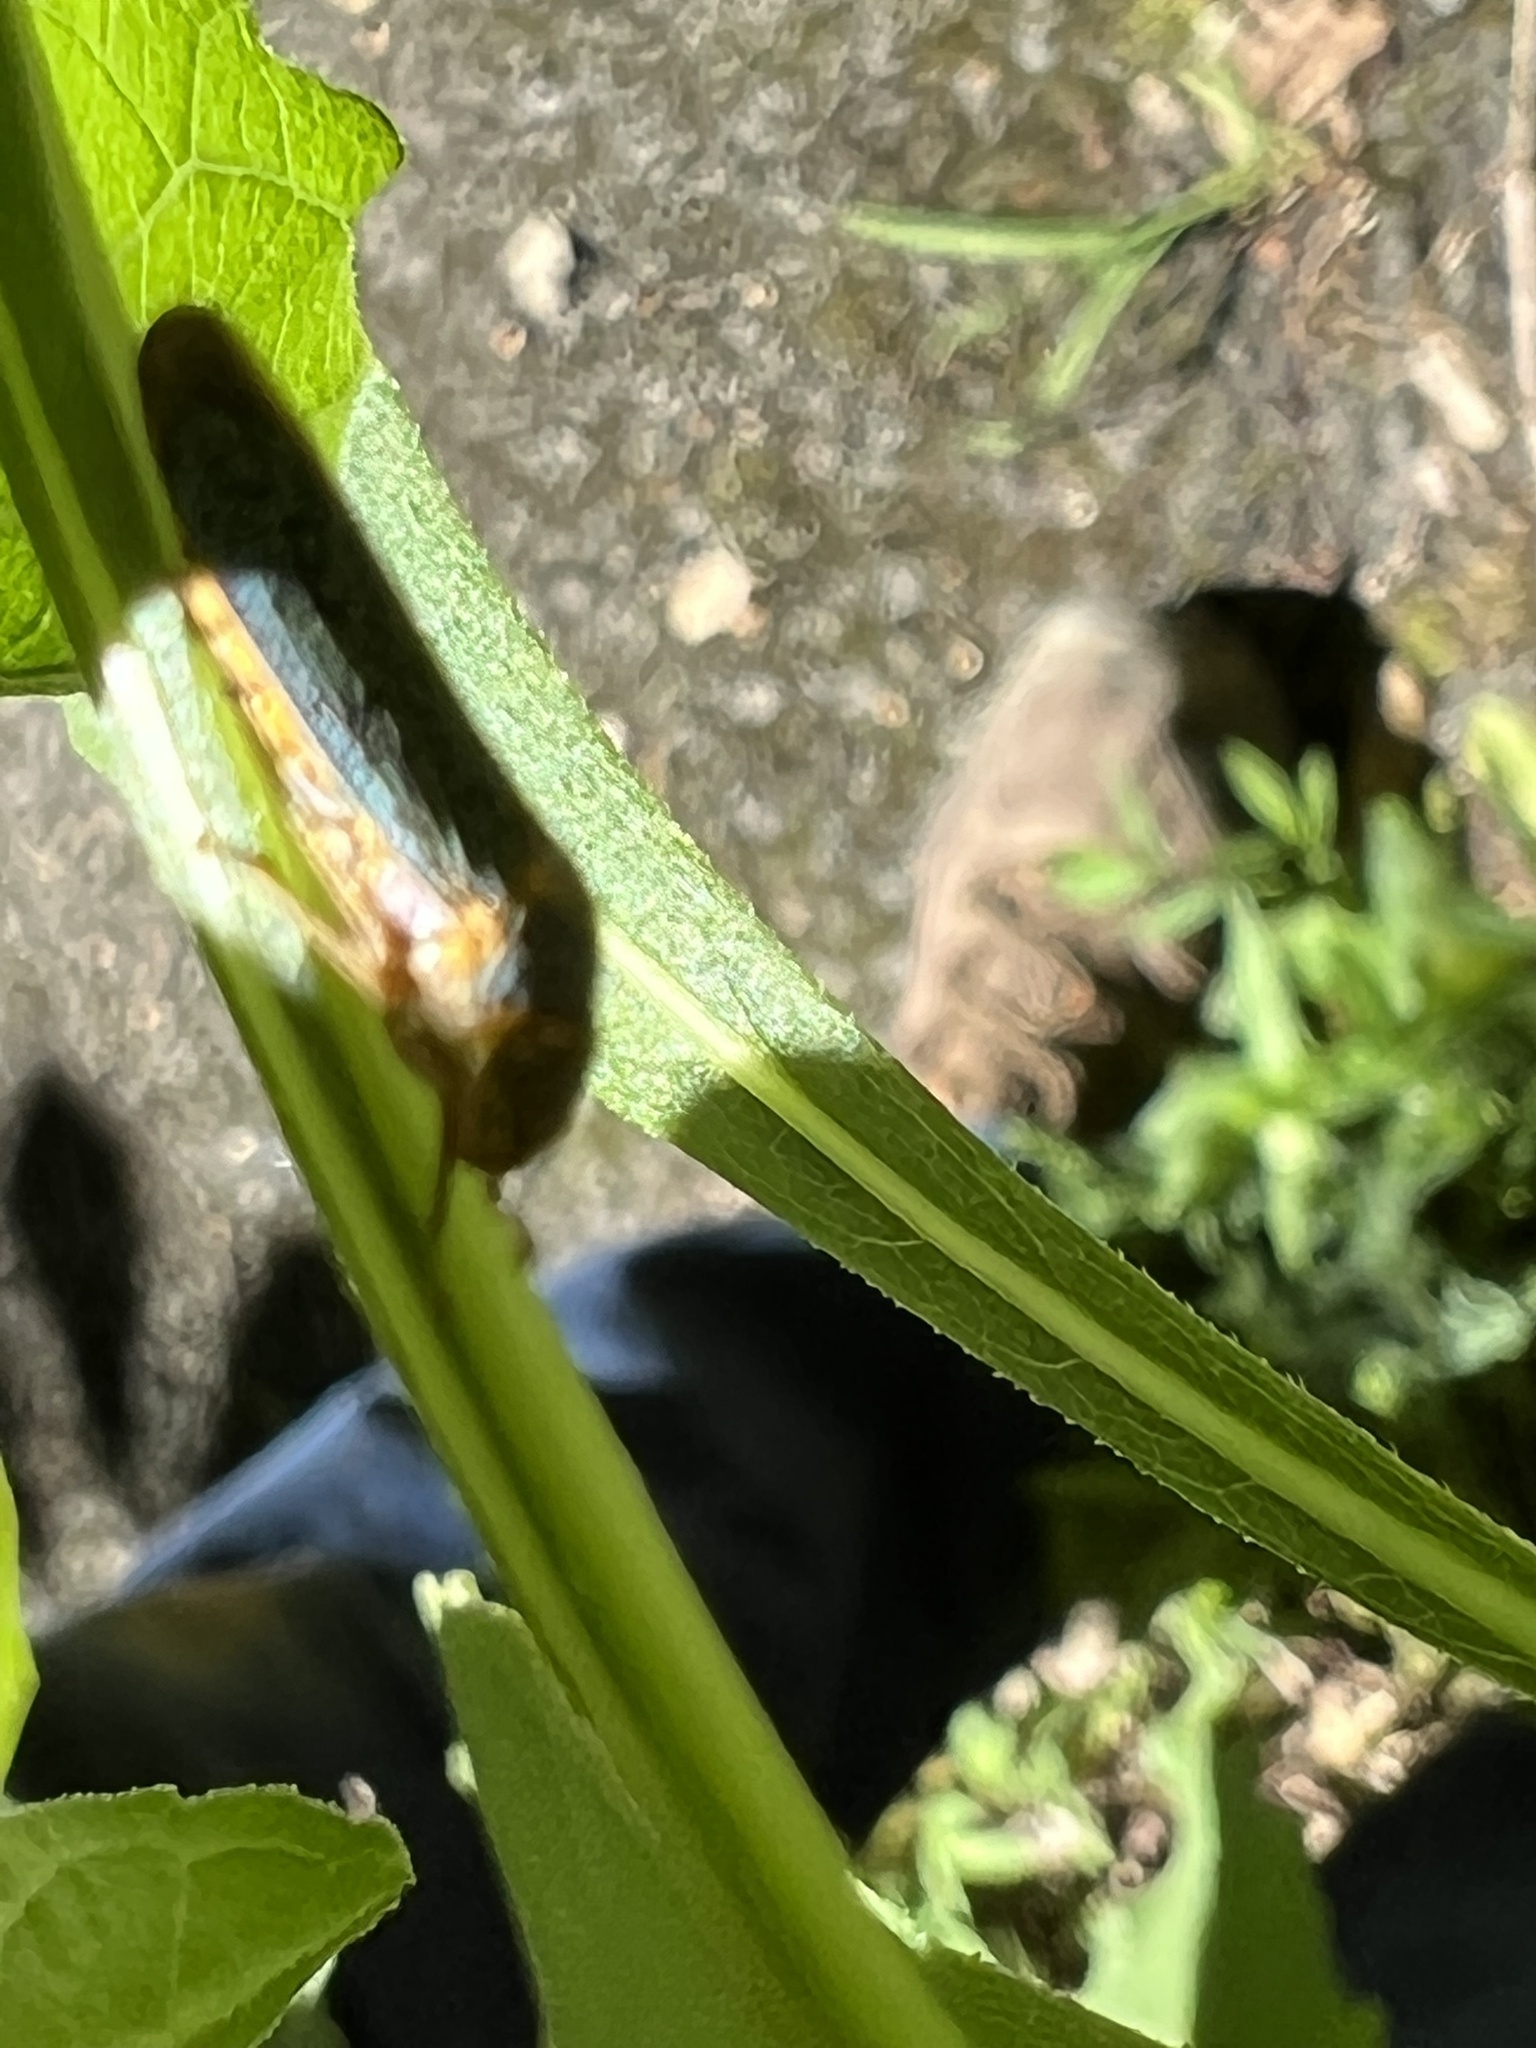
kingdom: Animalia
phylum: Arthropoda
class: Insecta
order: Hemiptera
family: Cicadellidae
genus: Oncometopia
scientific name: Oncometopia orbona
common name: Broad-headed sharpshooter
